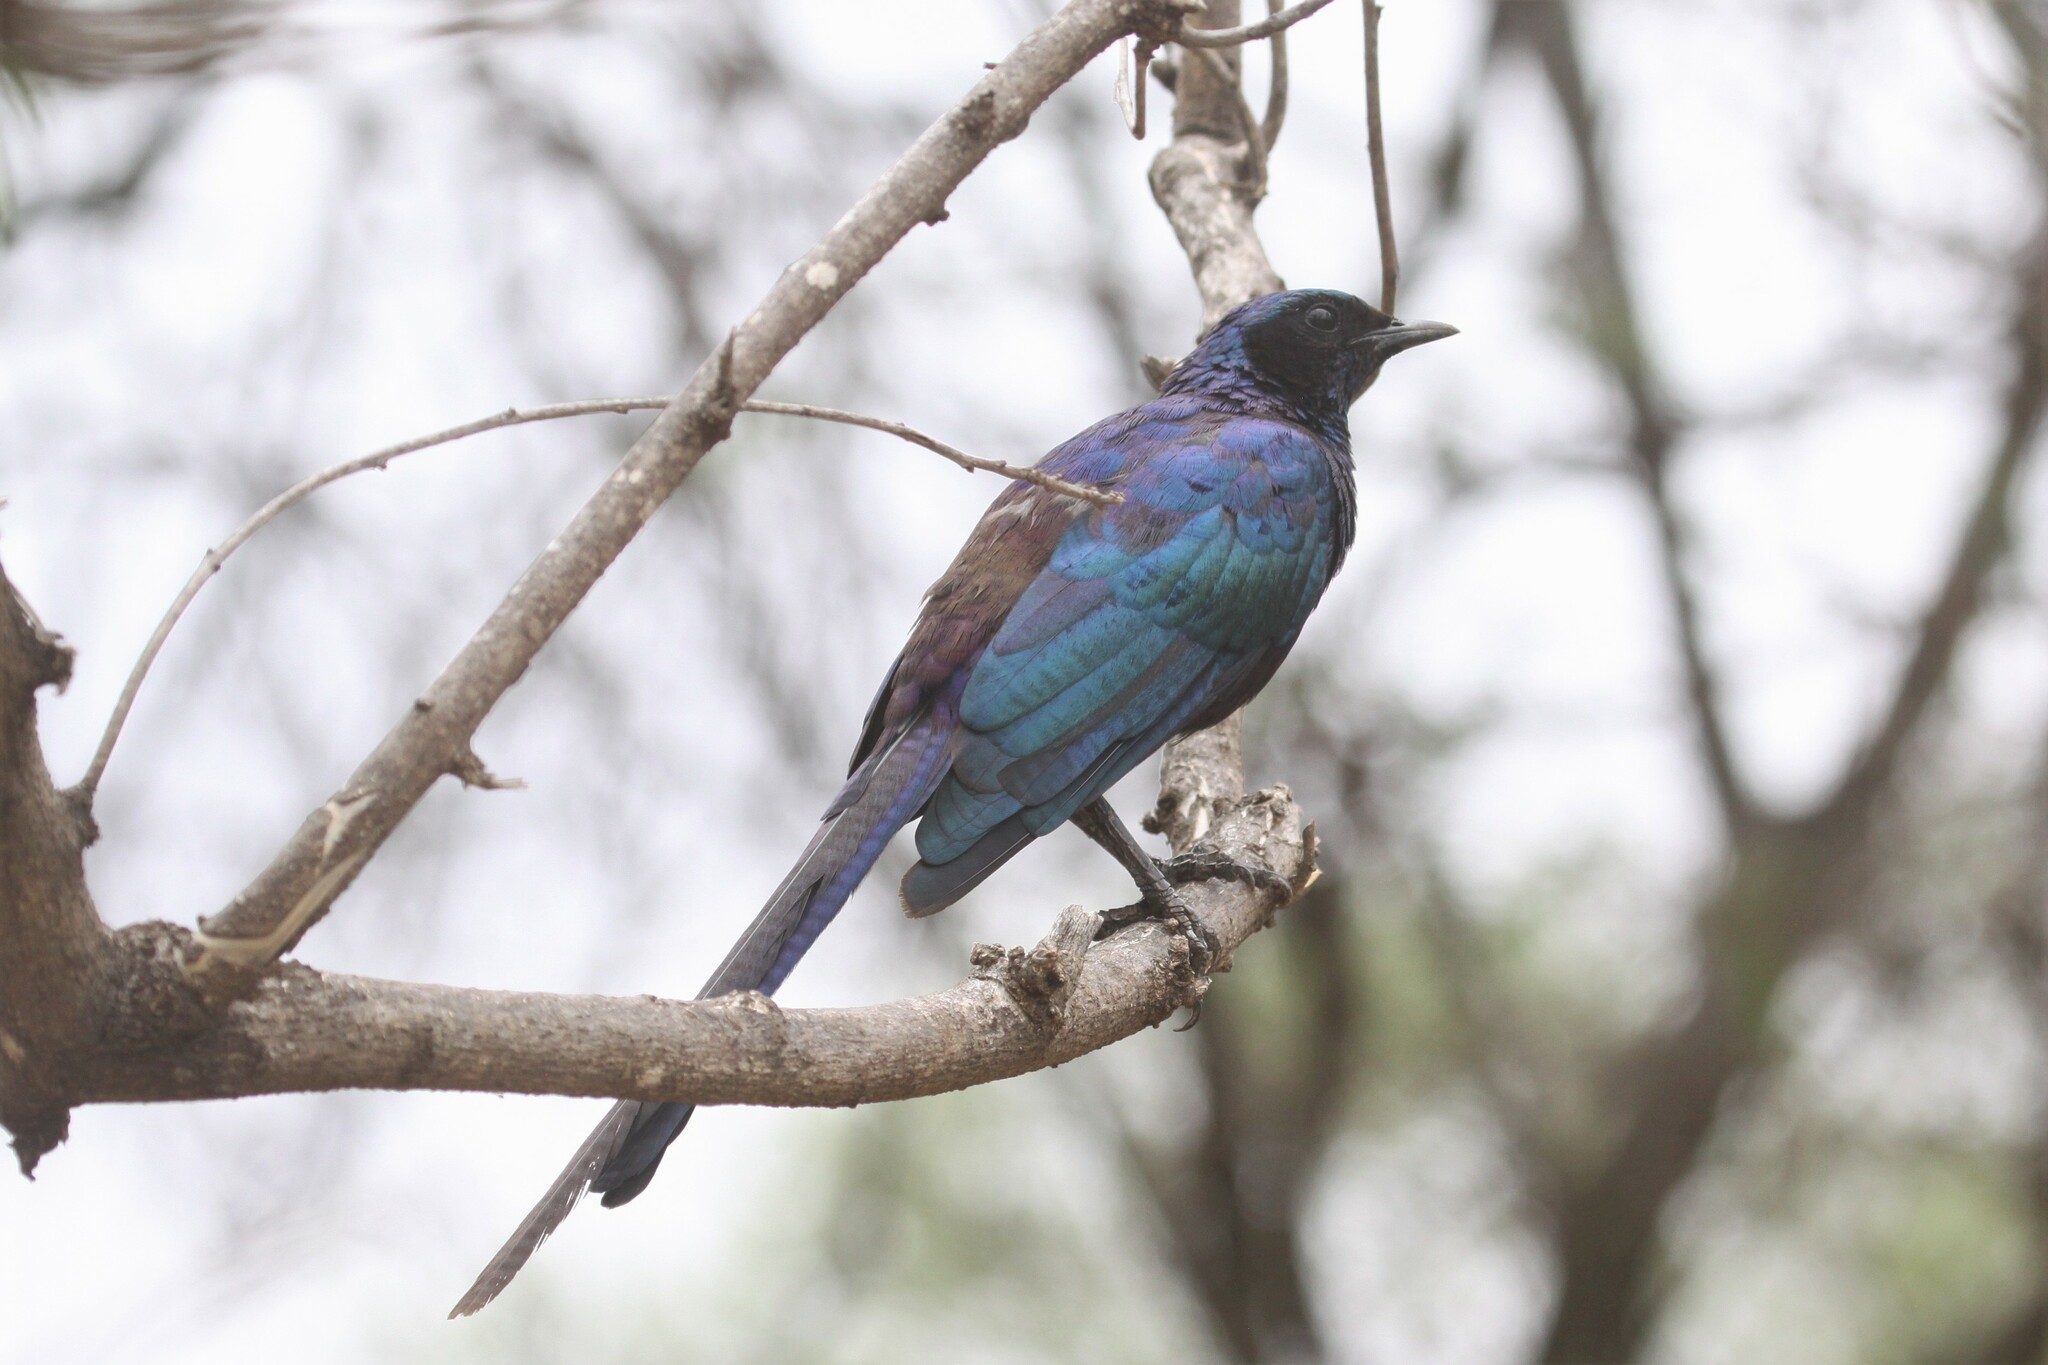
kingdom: Animalia
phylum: Chordata
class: Aves
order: Passeriformes
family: Sturnidae
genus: Lamprotornis
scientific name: Lamprotornis mevesii
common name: Meves's starling
